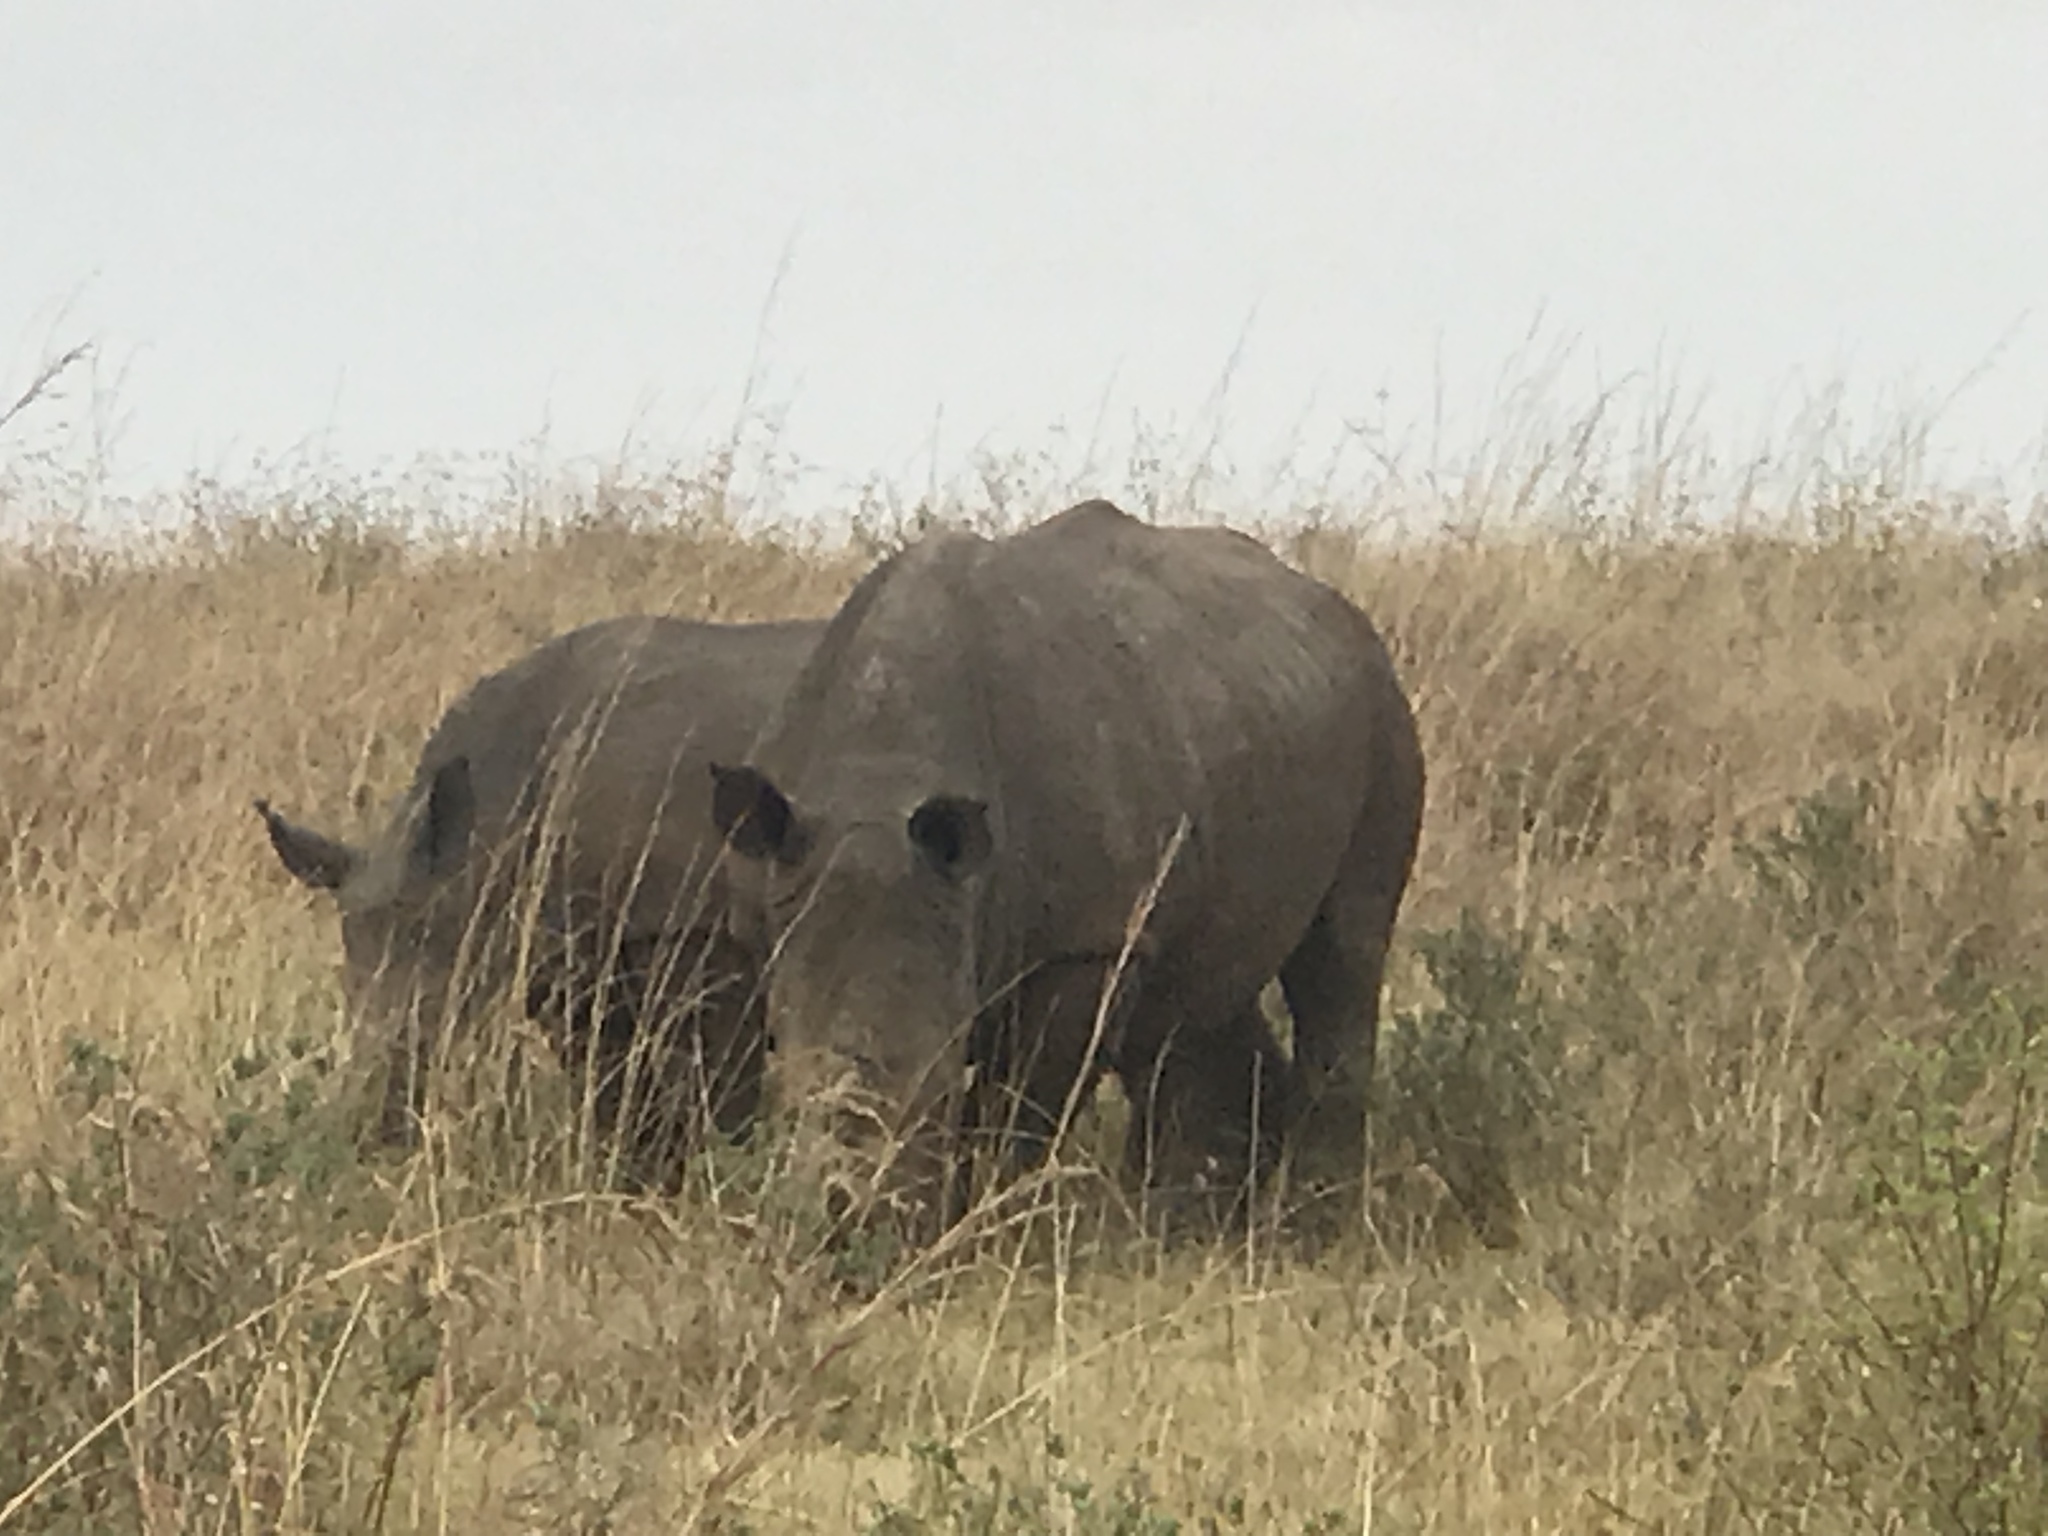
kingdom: Animalia
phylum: Chordata
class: Mammalia
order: Perissodactyla
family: Rhinocerotidae
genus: Ceratotherium
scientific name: Ceratotherium simum
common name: White rhinoceros
